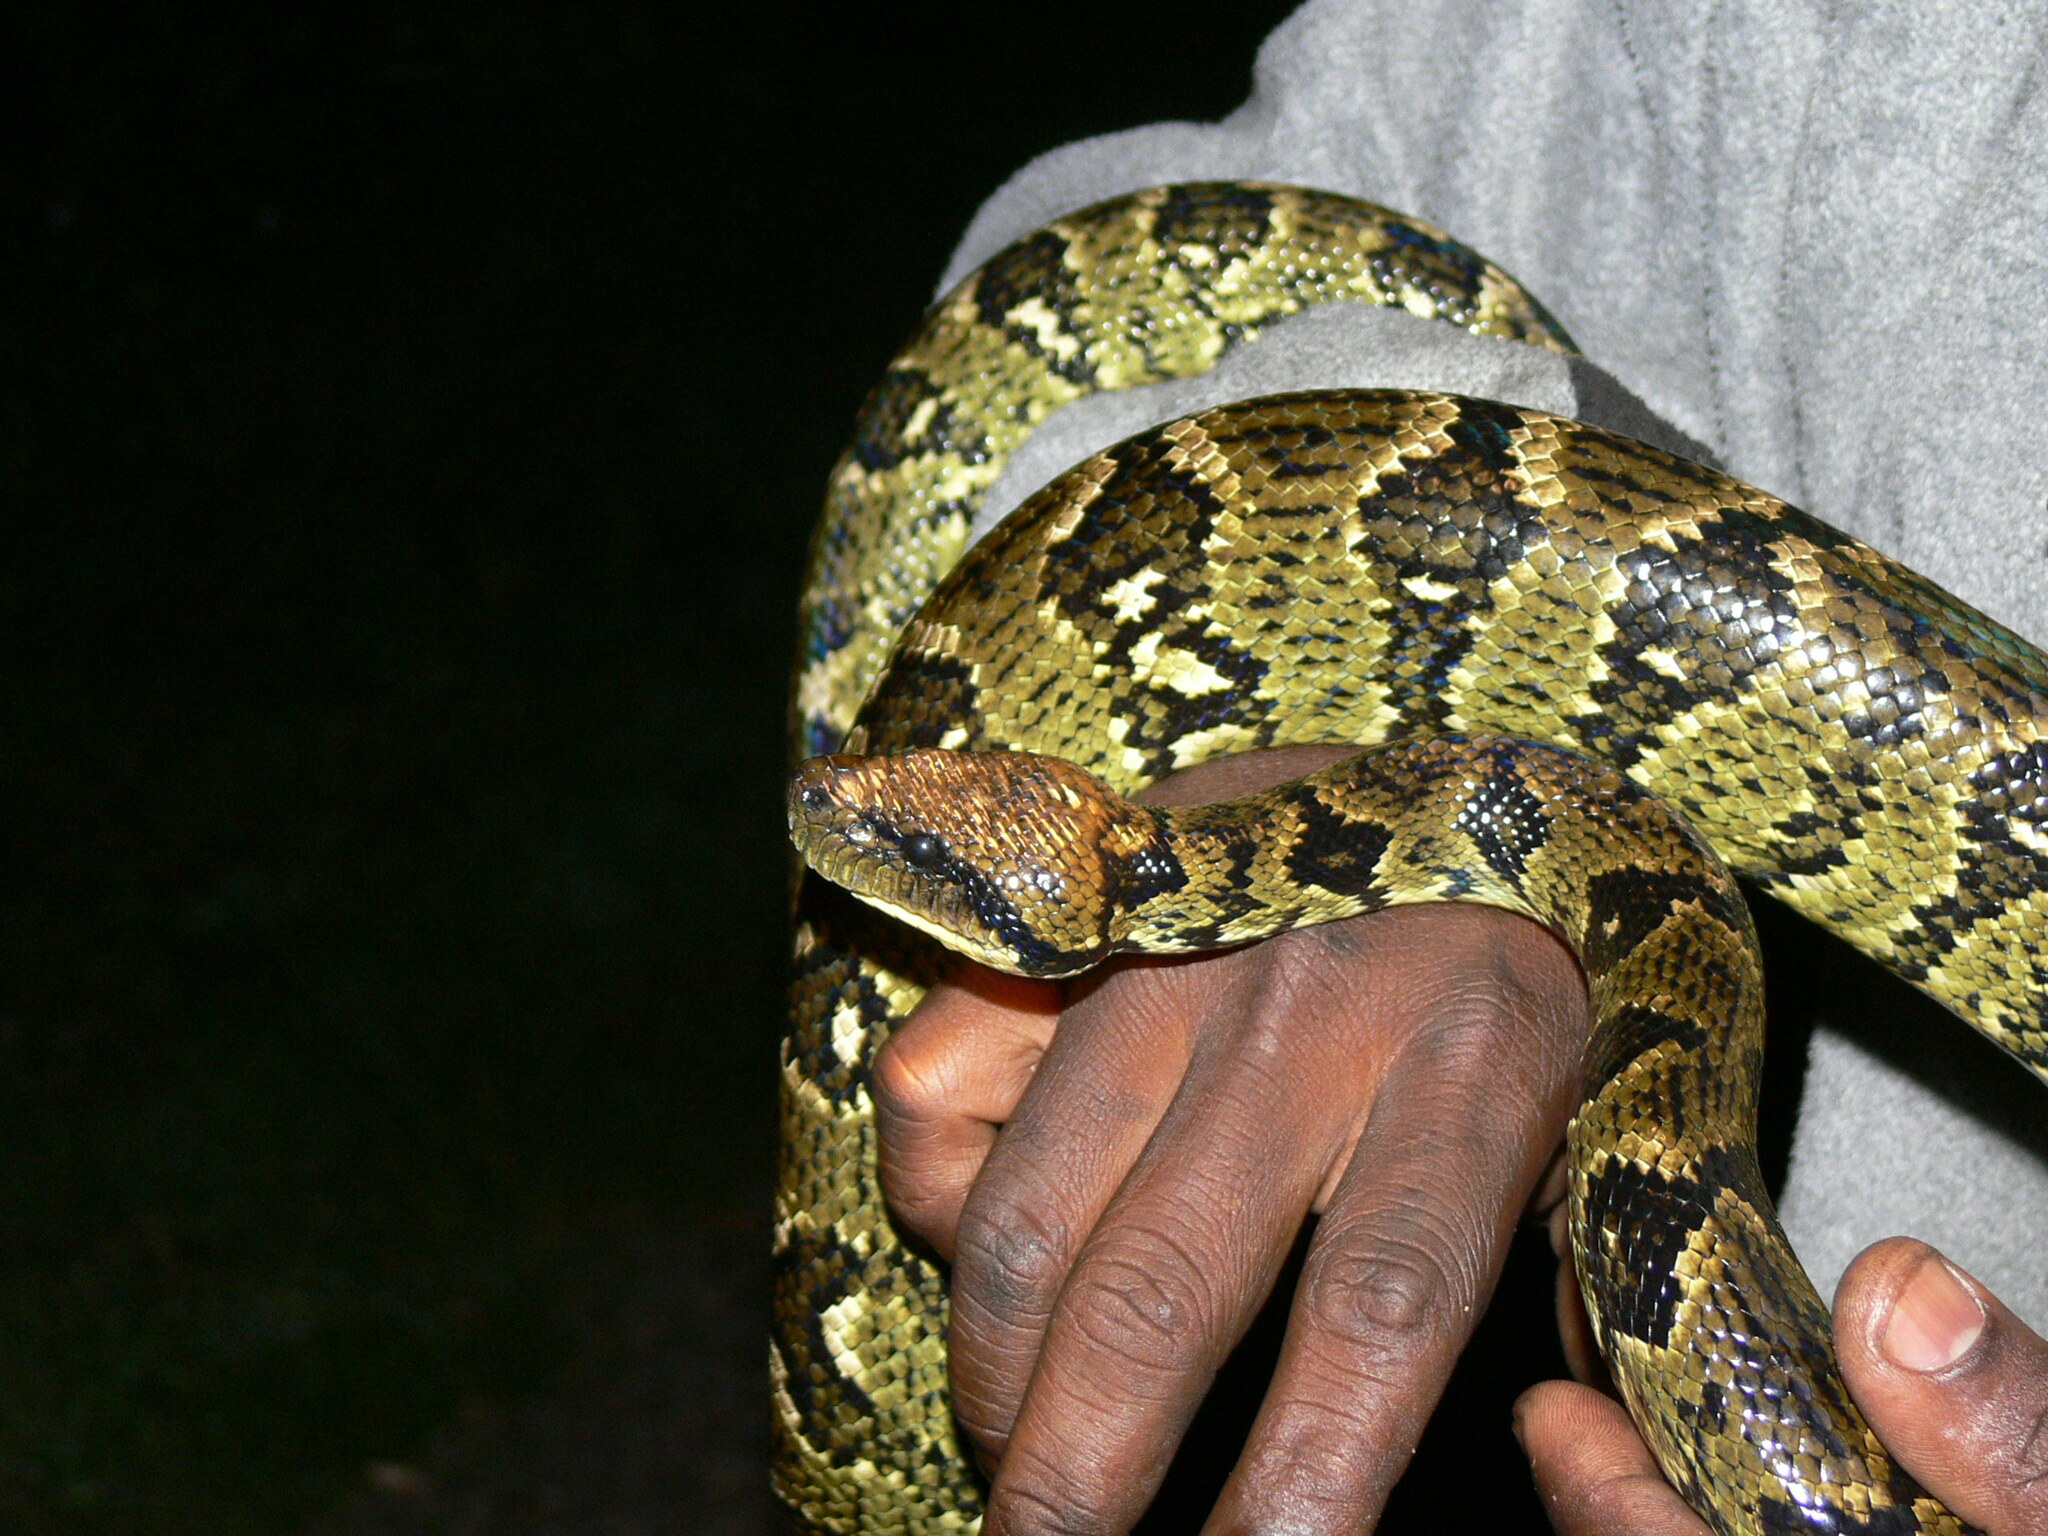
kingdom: Animalia
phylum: Chordata
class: Squamata
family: Boidae
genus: Sanzinia
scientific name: Sanzinia madagascariensis
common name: Madagascar tree boa
